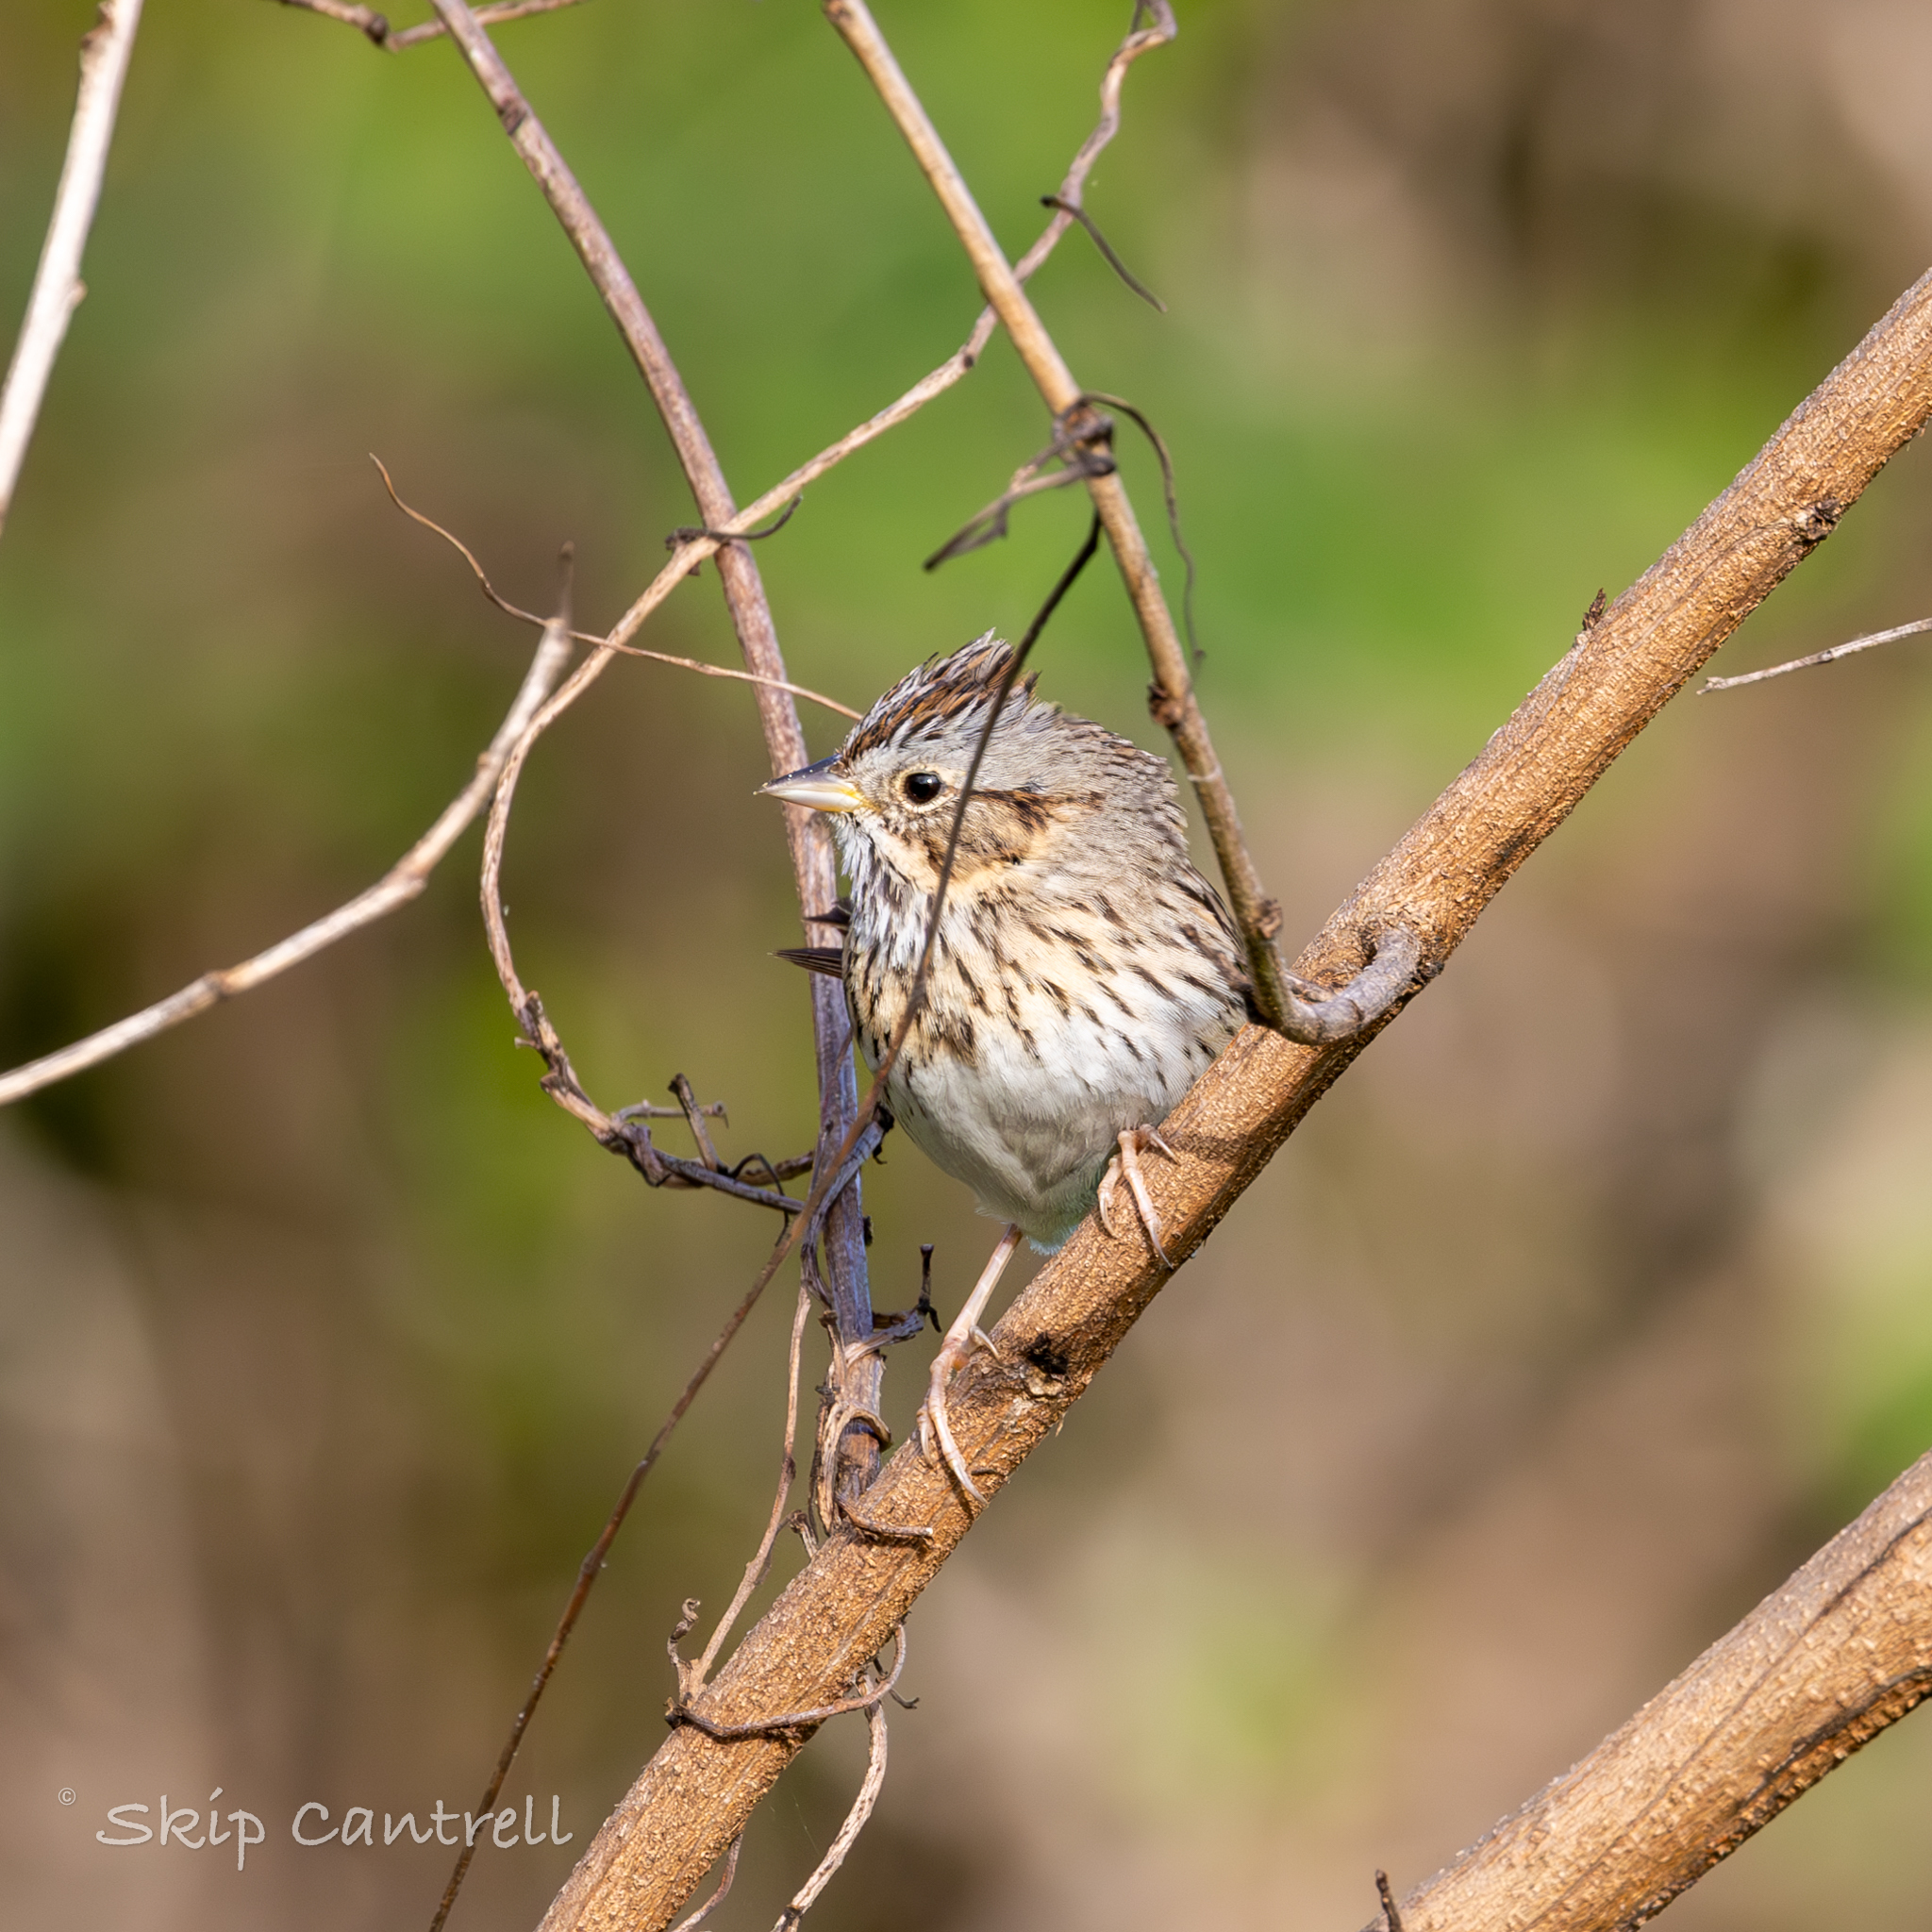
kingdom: Animalia
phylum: Chordata
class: Aves
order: Passeriformes
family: Passerellidae
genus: Melospiza
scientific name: Melospiza lincolnii
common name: Lincoln's sparrow
